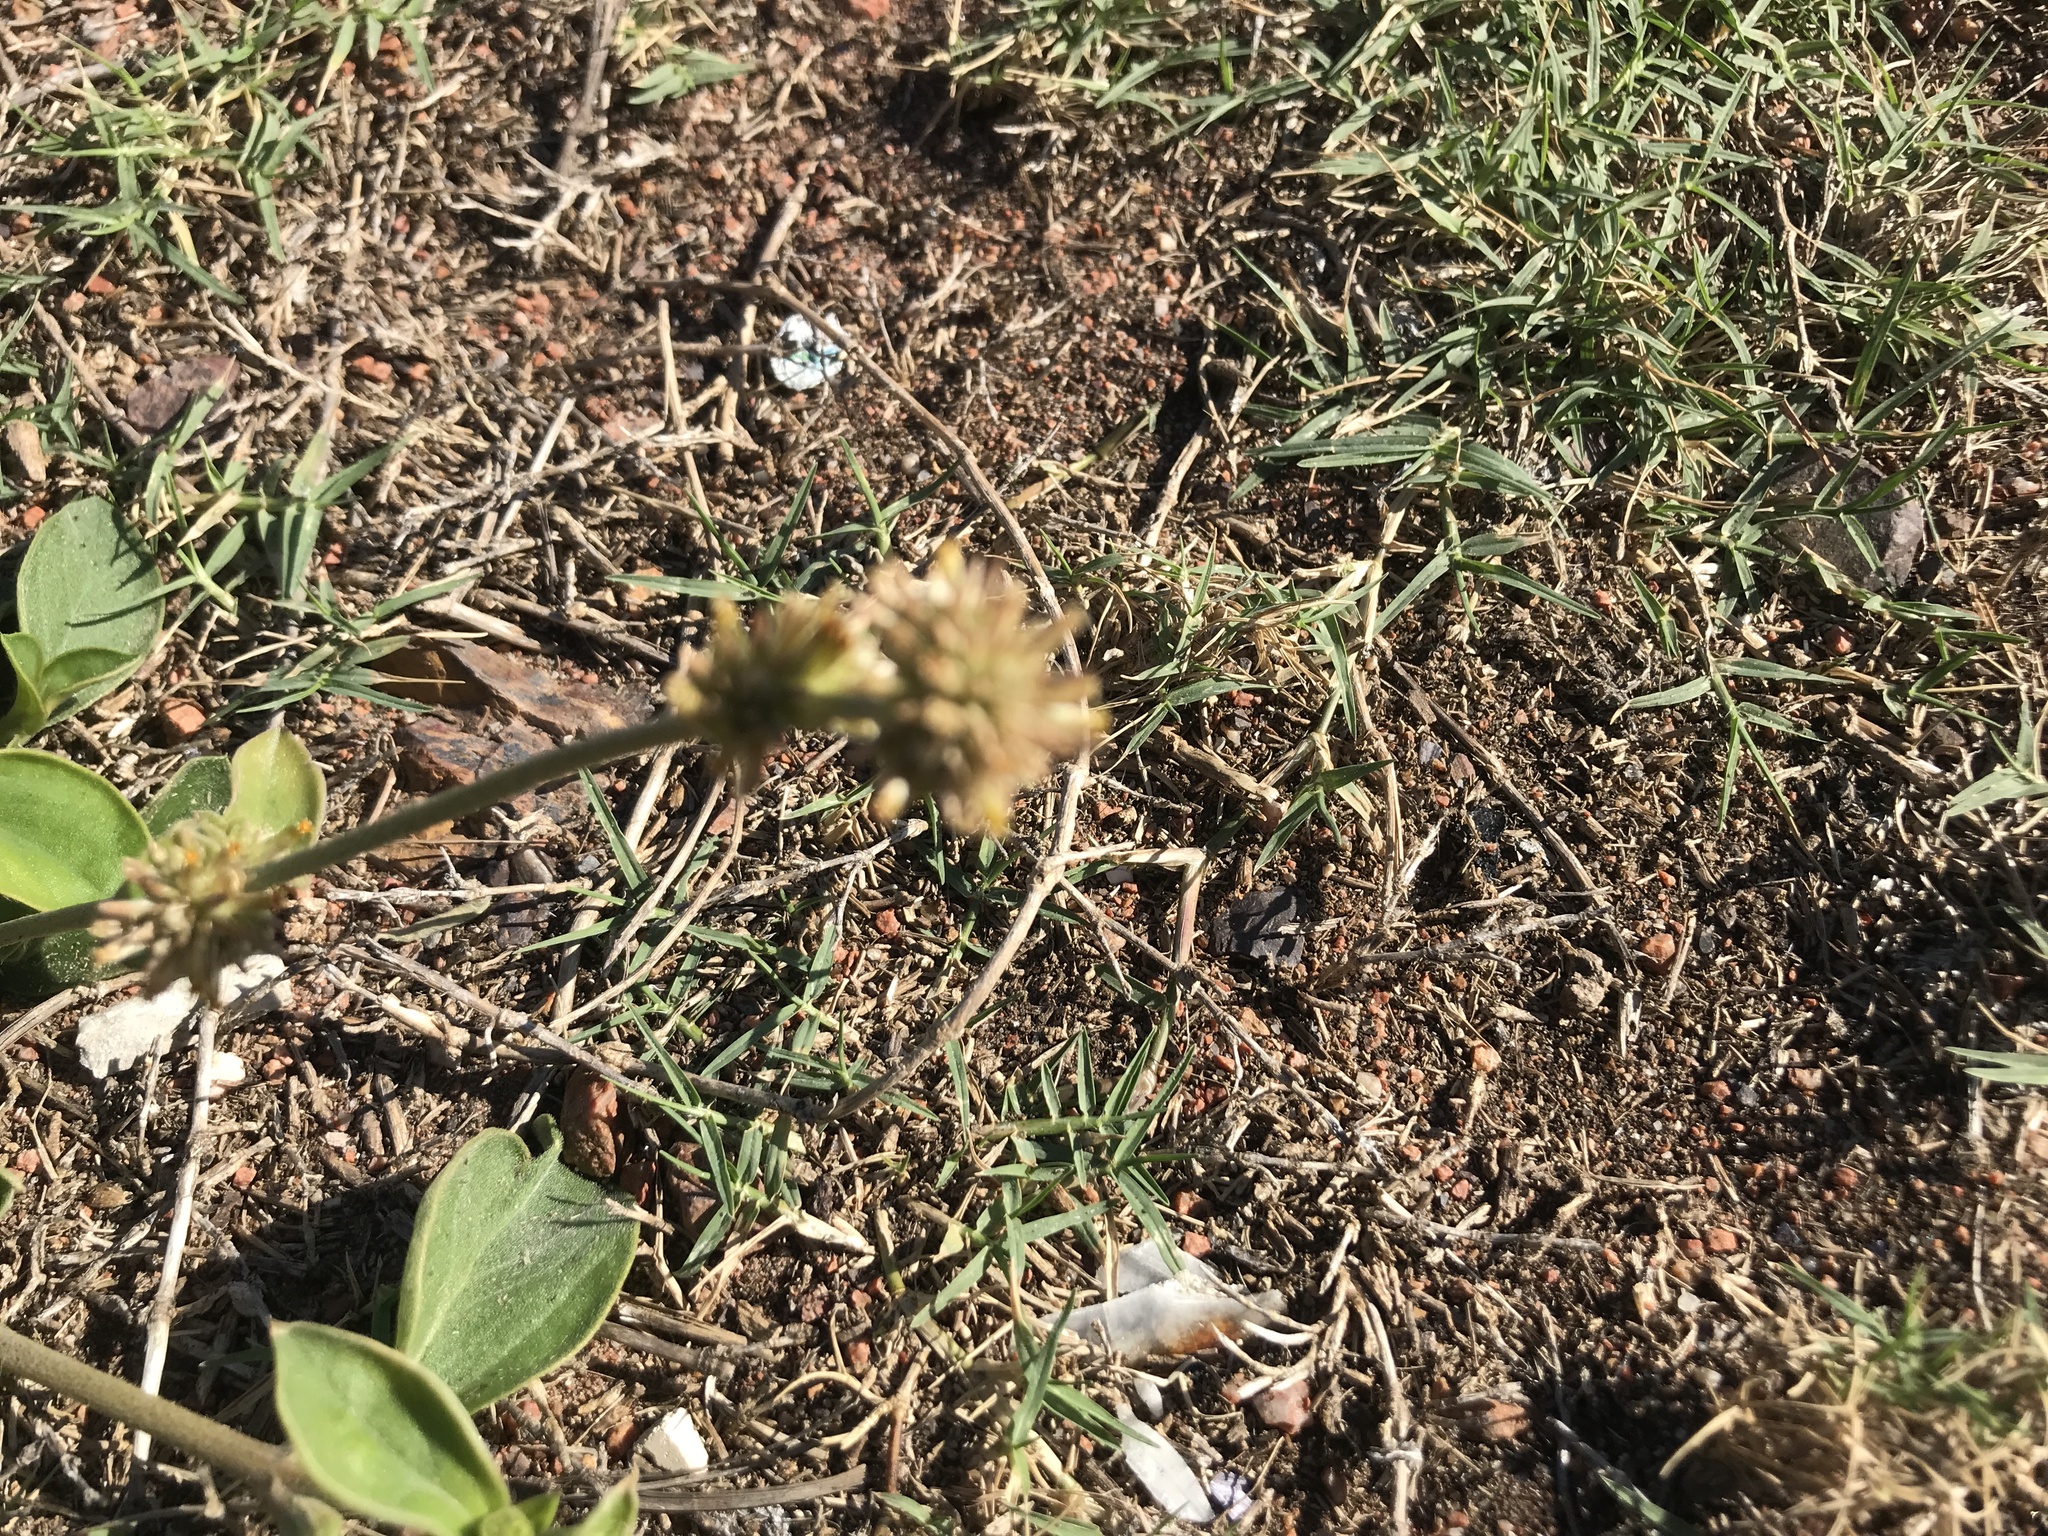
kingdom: Plantae
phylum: Tracheophyta
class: Magnoliopsida
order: Caryophyllales
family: Amaranthaceae
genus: Gomphrena
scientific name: Gomphrena perennis
